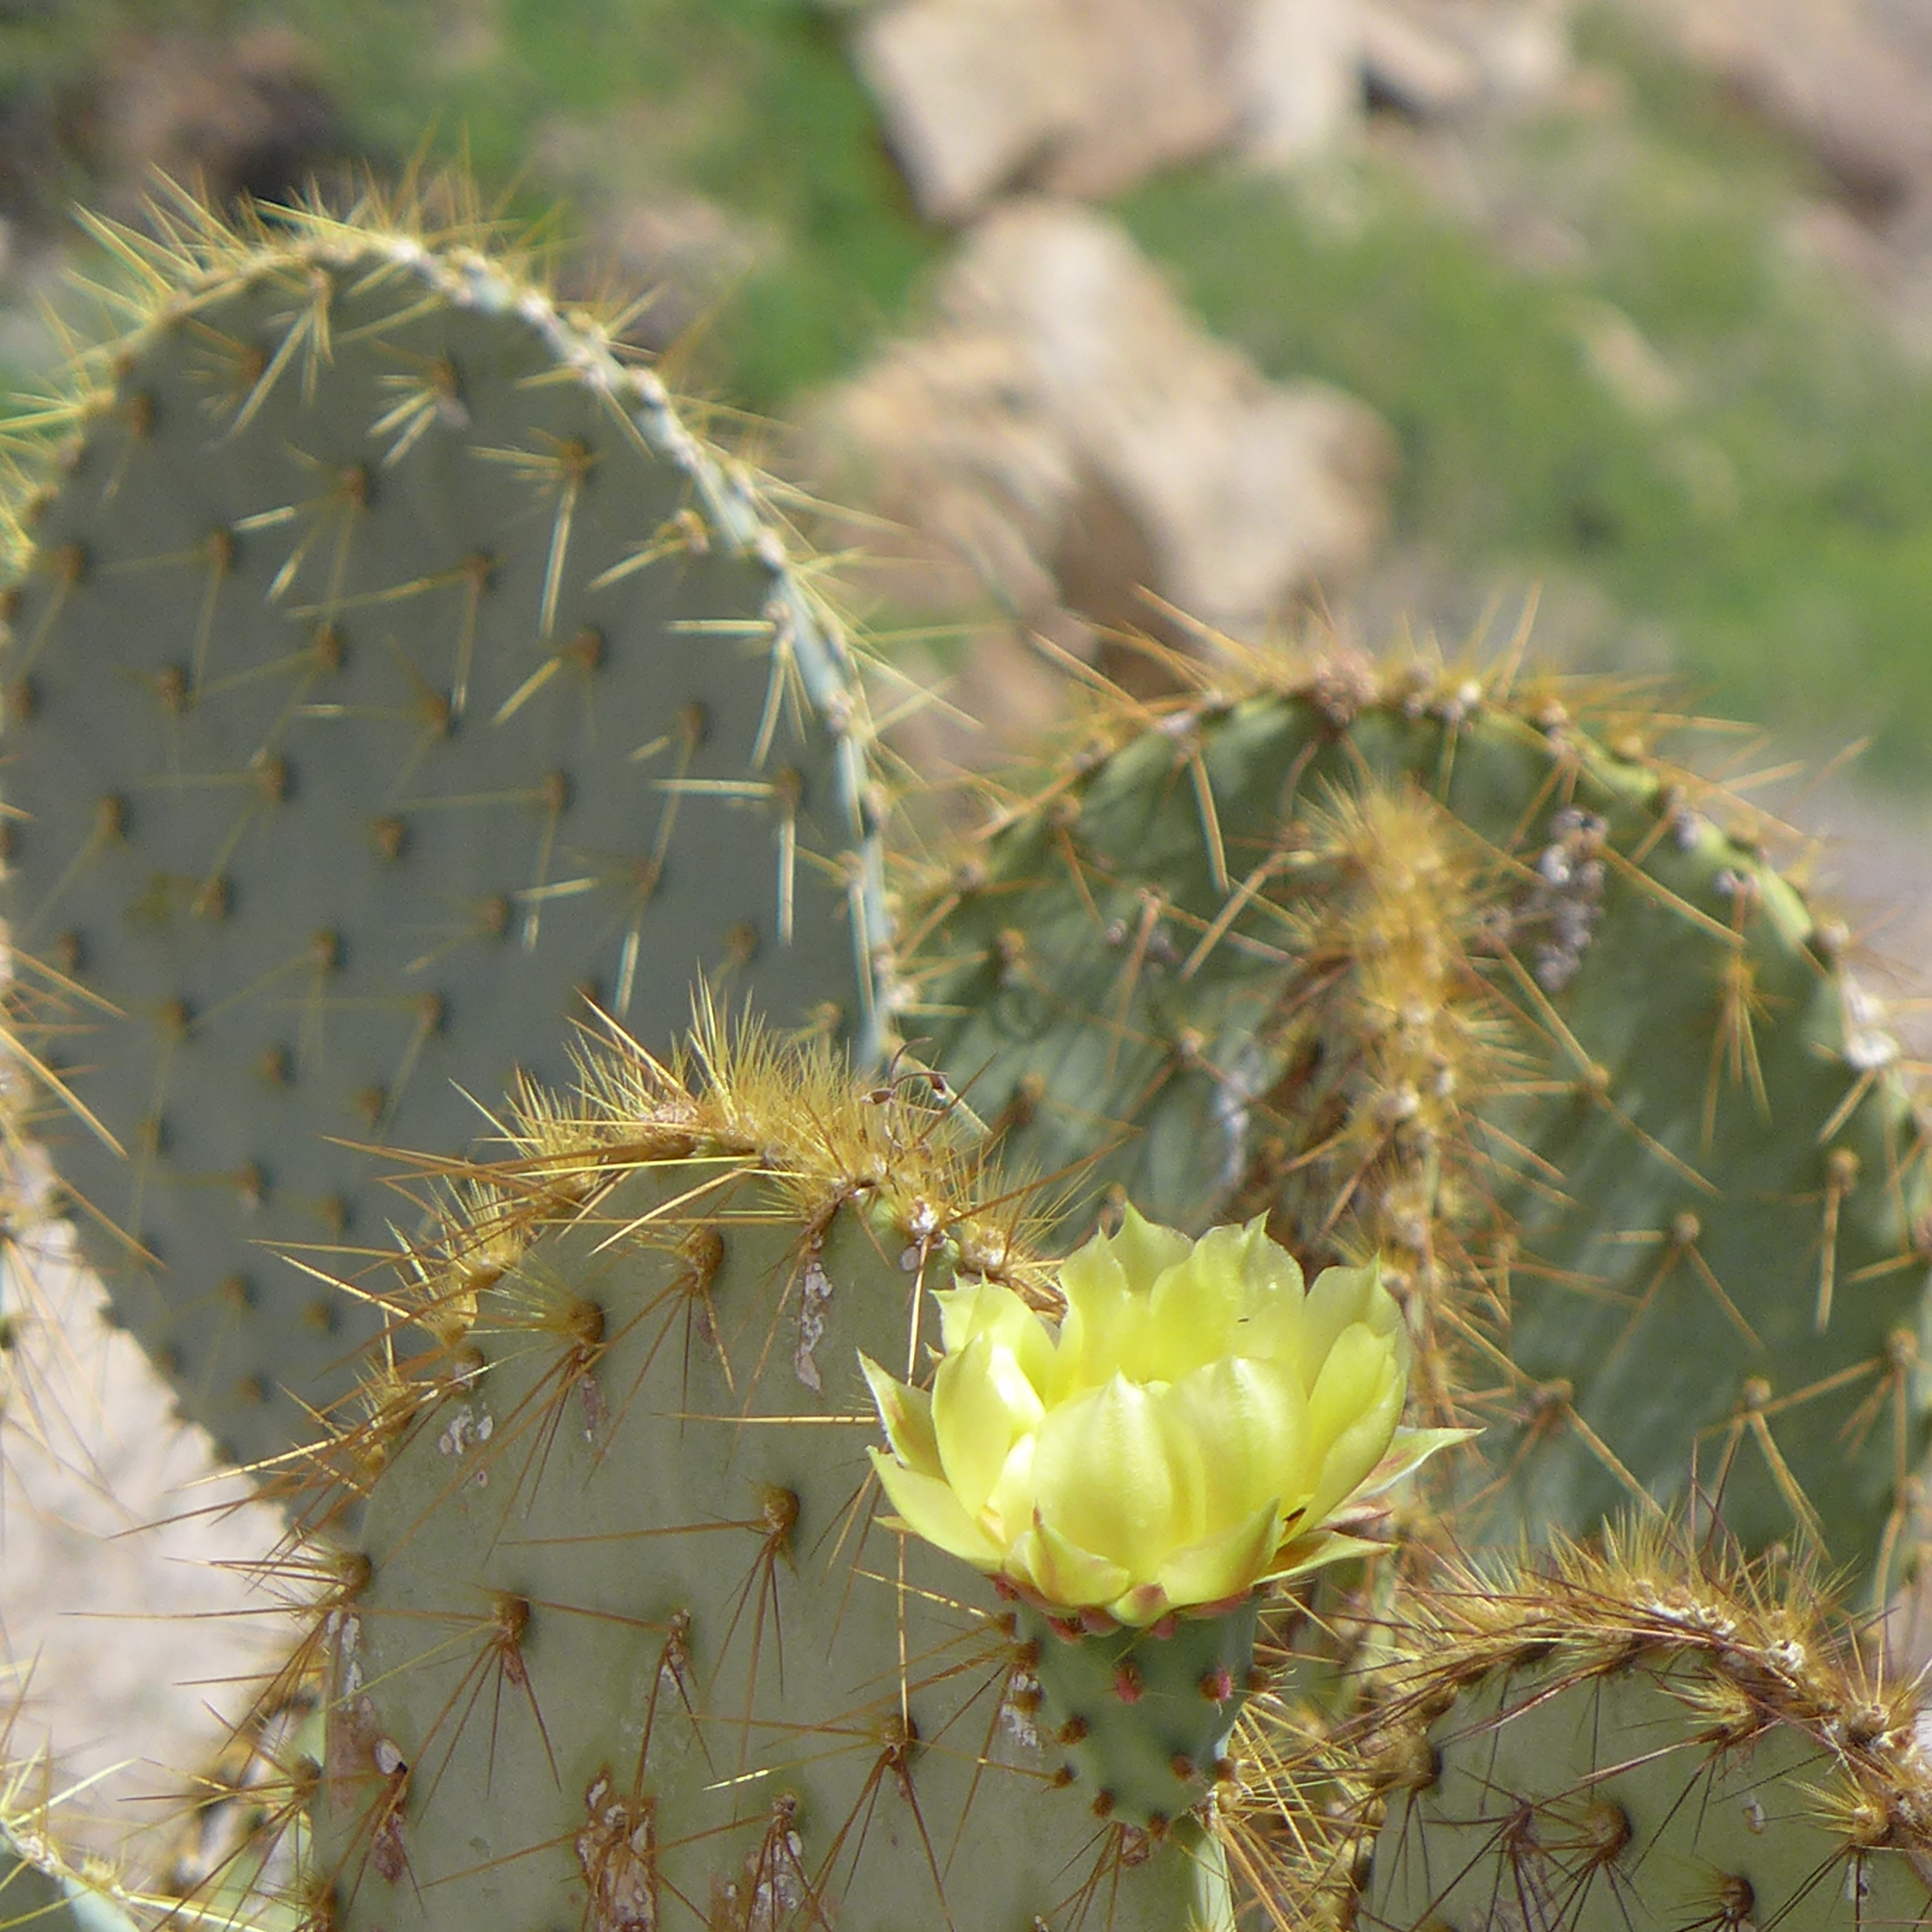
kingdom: Plantae
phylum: Tracheophyta
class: Magnoliopsida
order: Caryophyllales
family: Cactaceae
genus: Opuntia
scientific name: Opuntia chlorotica
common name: Dollar-joint prickly-pear
